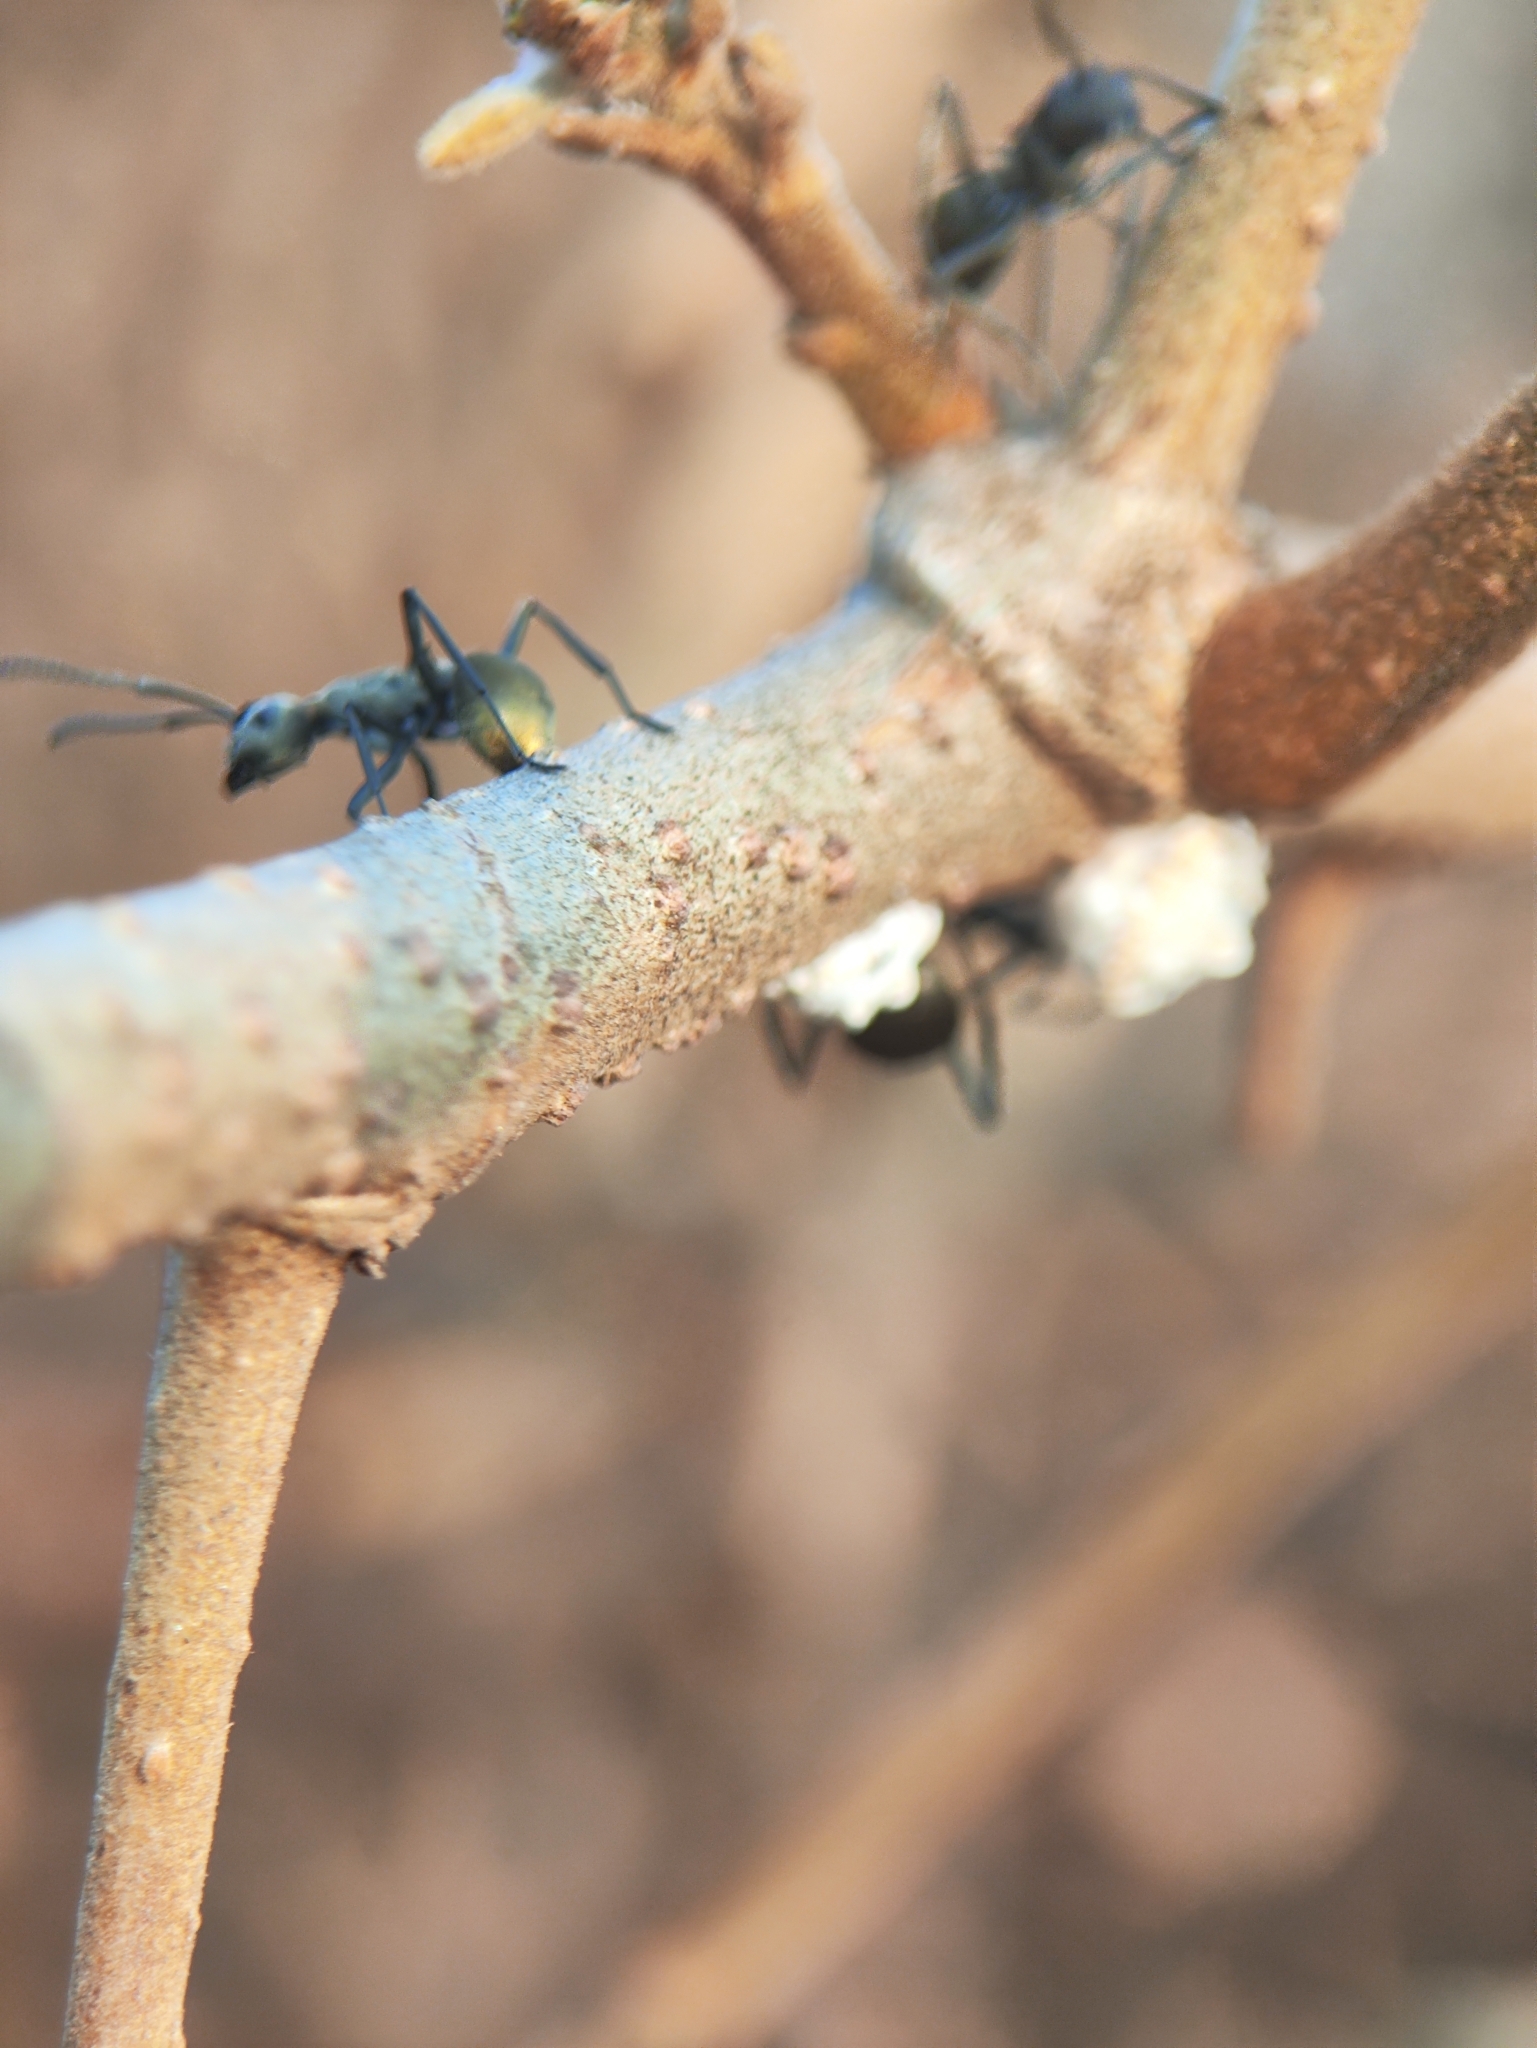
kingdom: Animalia
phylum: Arthropoda
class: Insecta
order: Hymenoptera
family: Formicidae
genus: Polyrhachis
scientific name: Polyrhachis dives
